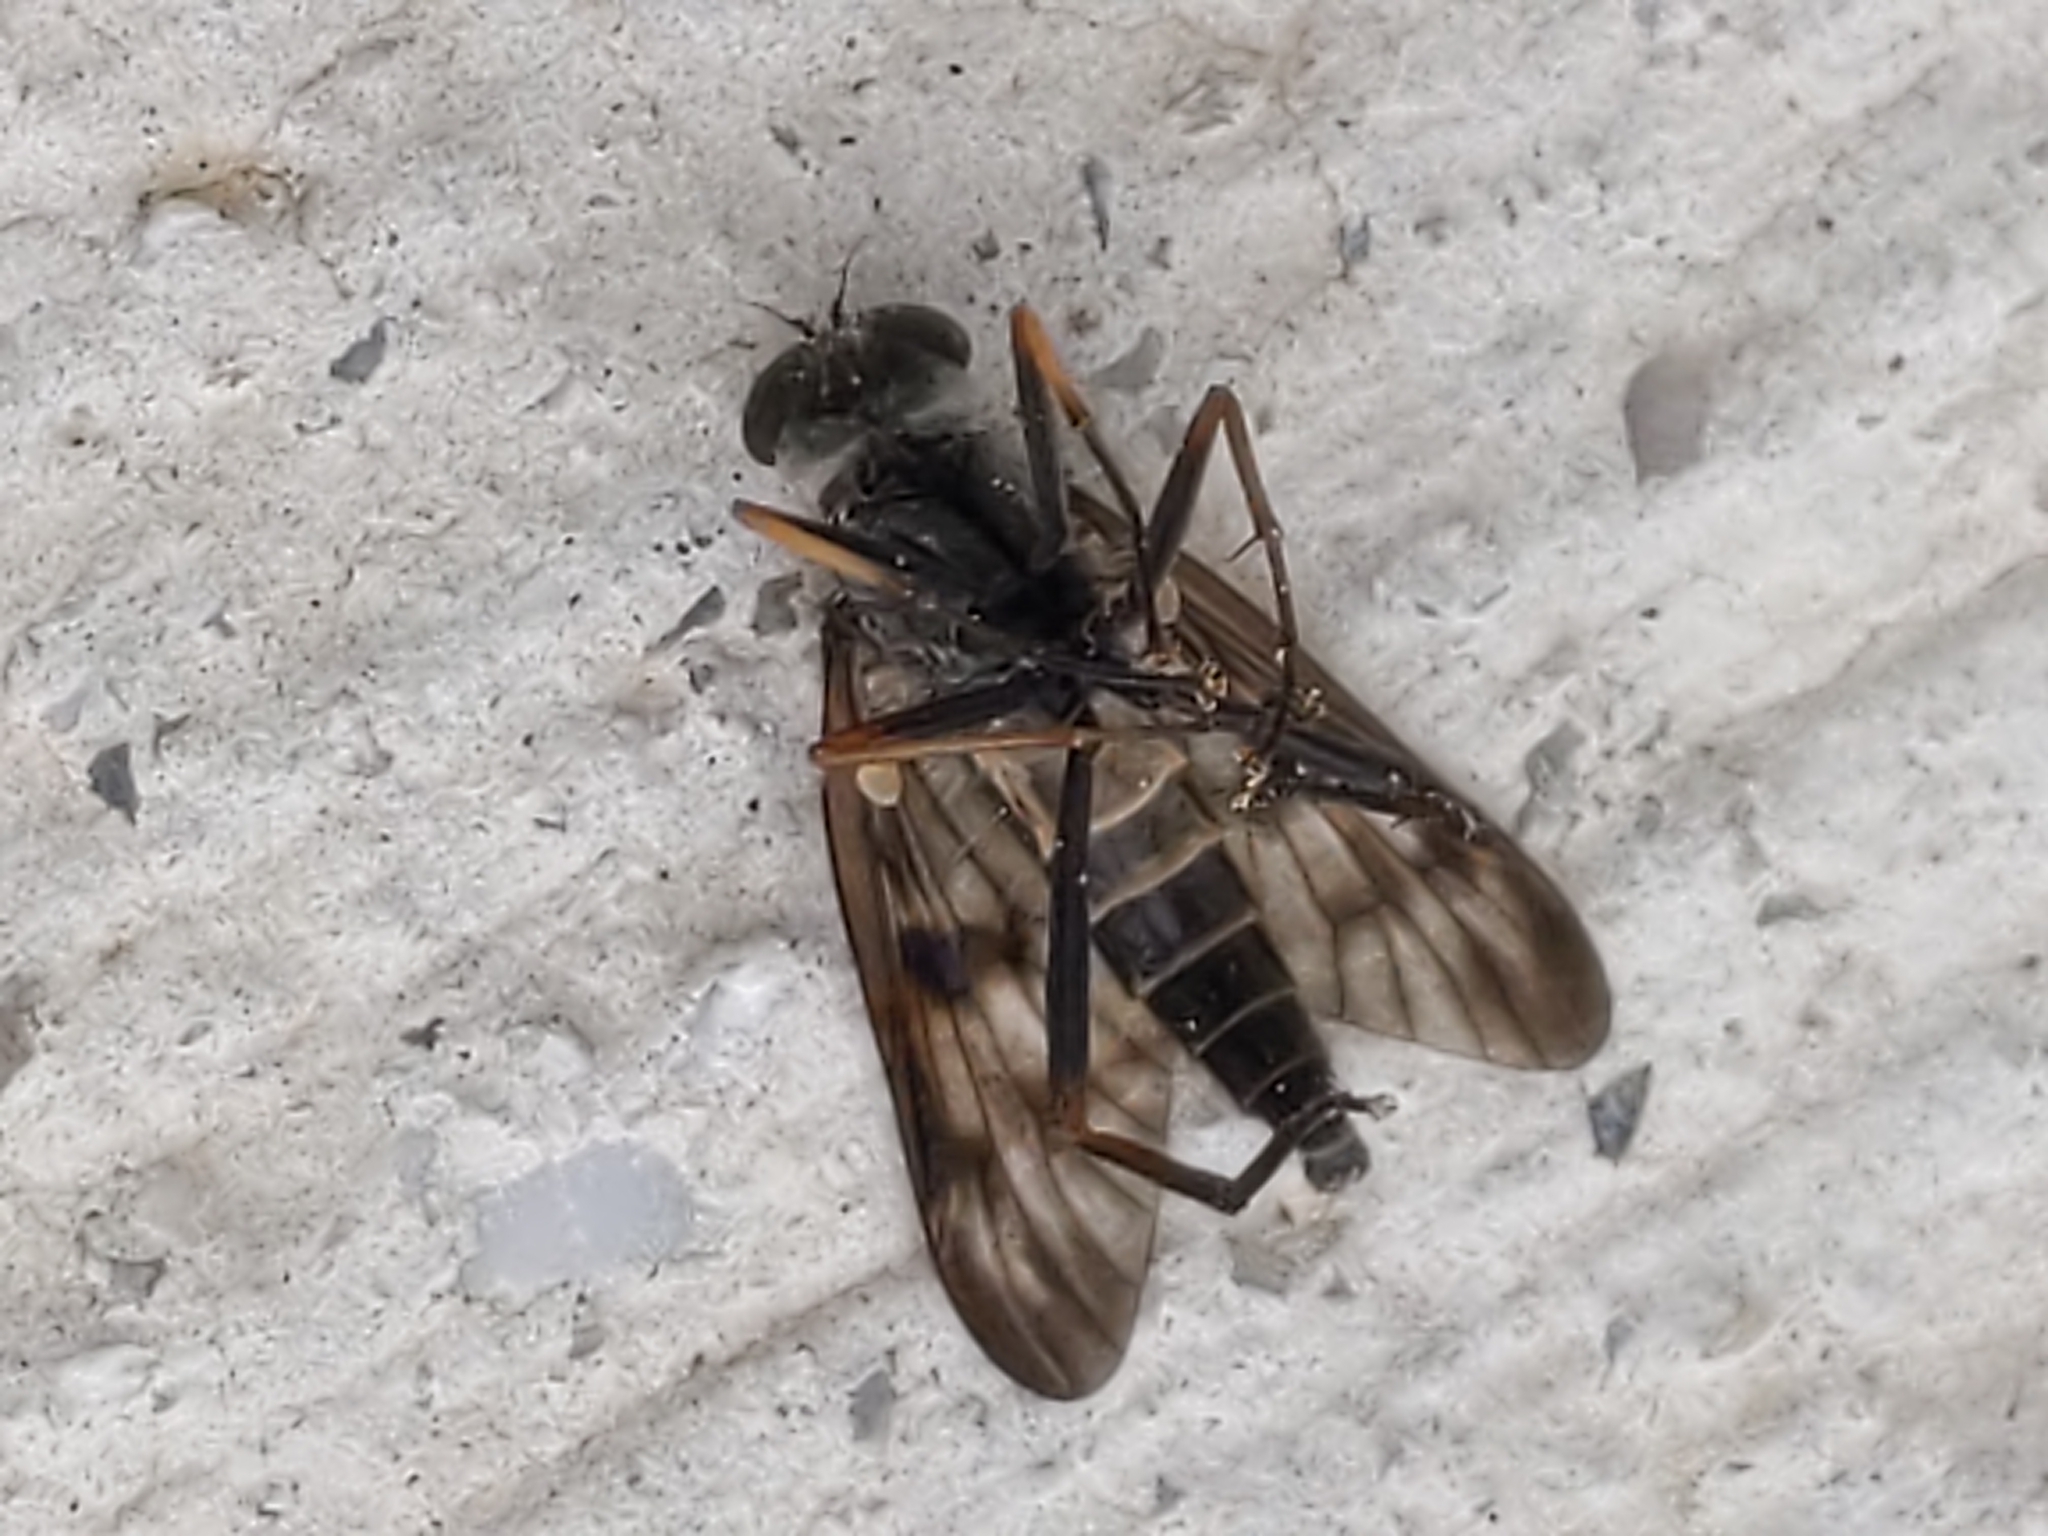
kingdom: Animalia
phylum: Arthropoda
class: Insecta
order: Diptera
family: Rhagionidae
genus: Rhagio
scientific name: Rhagio mystaceus
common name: Common snipe fly
